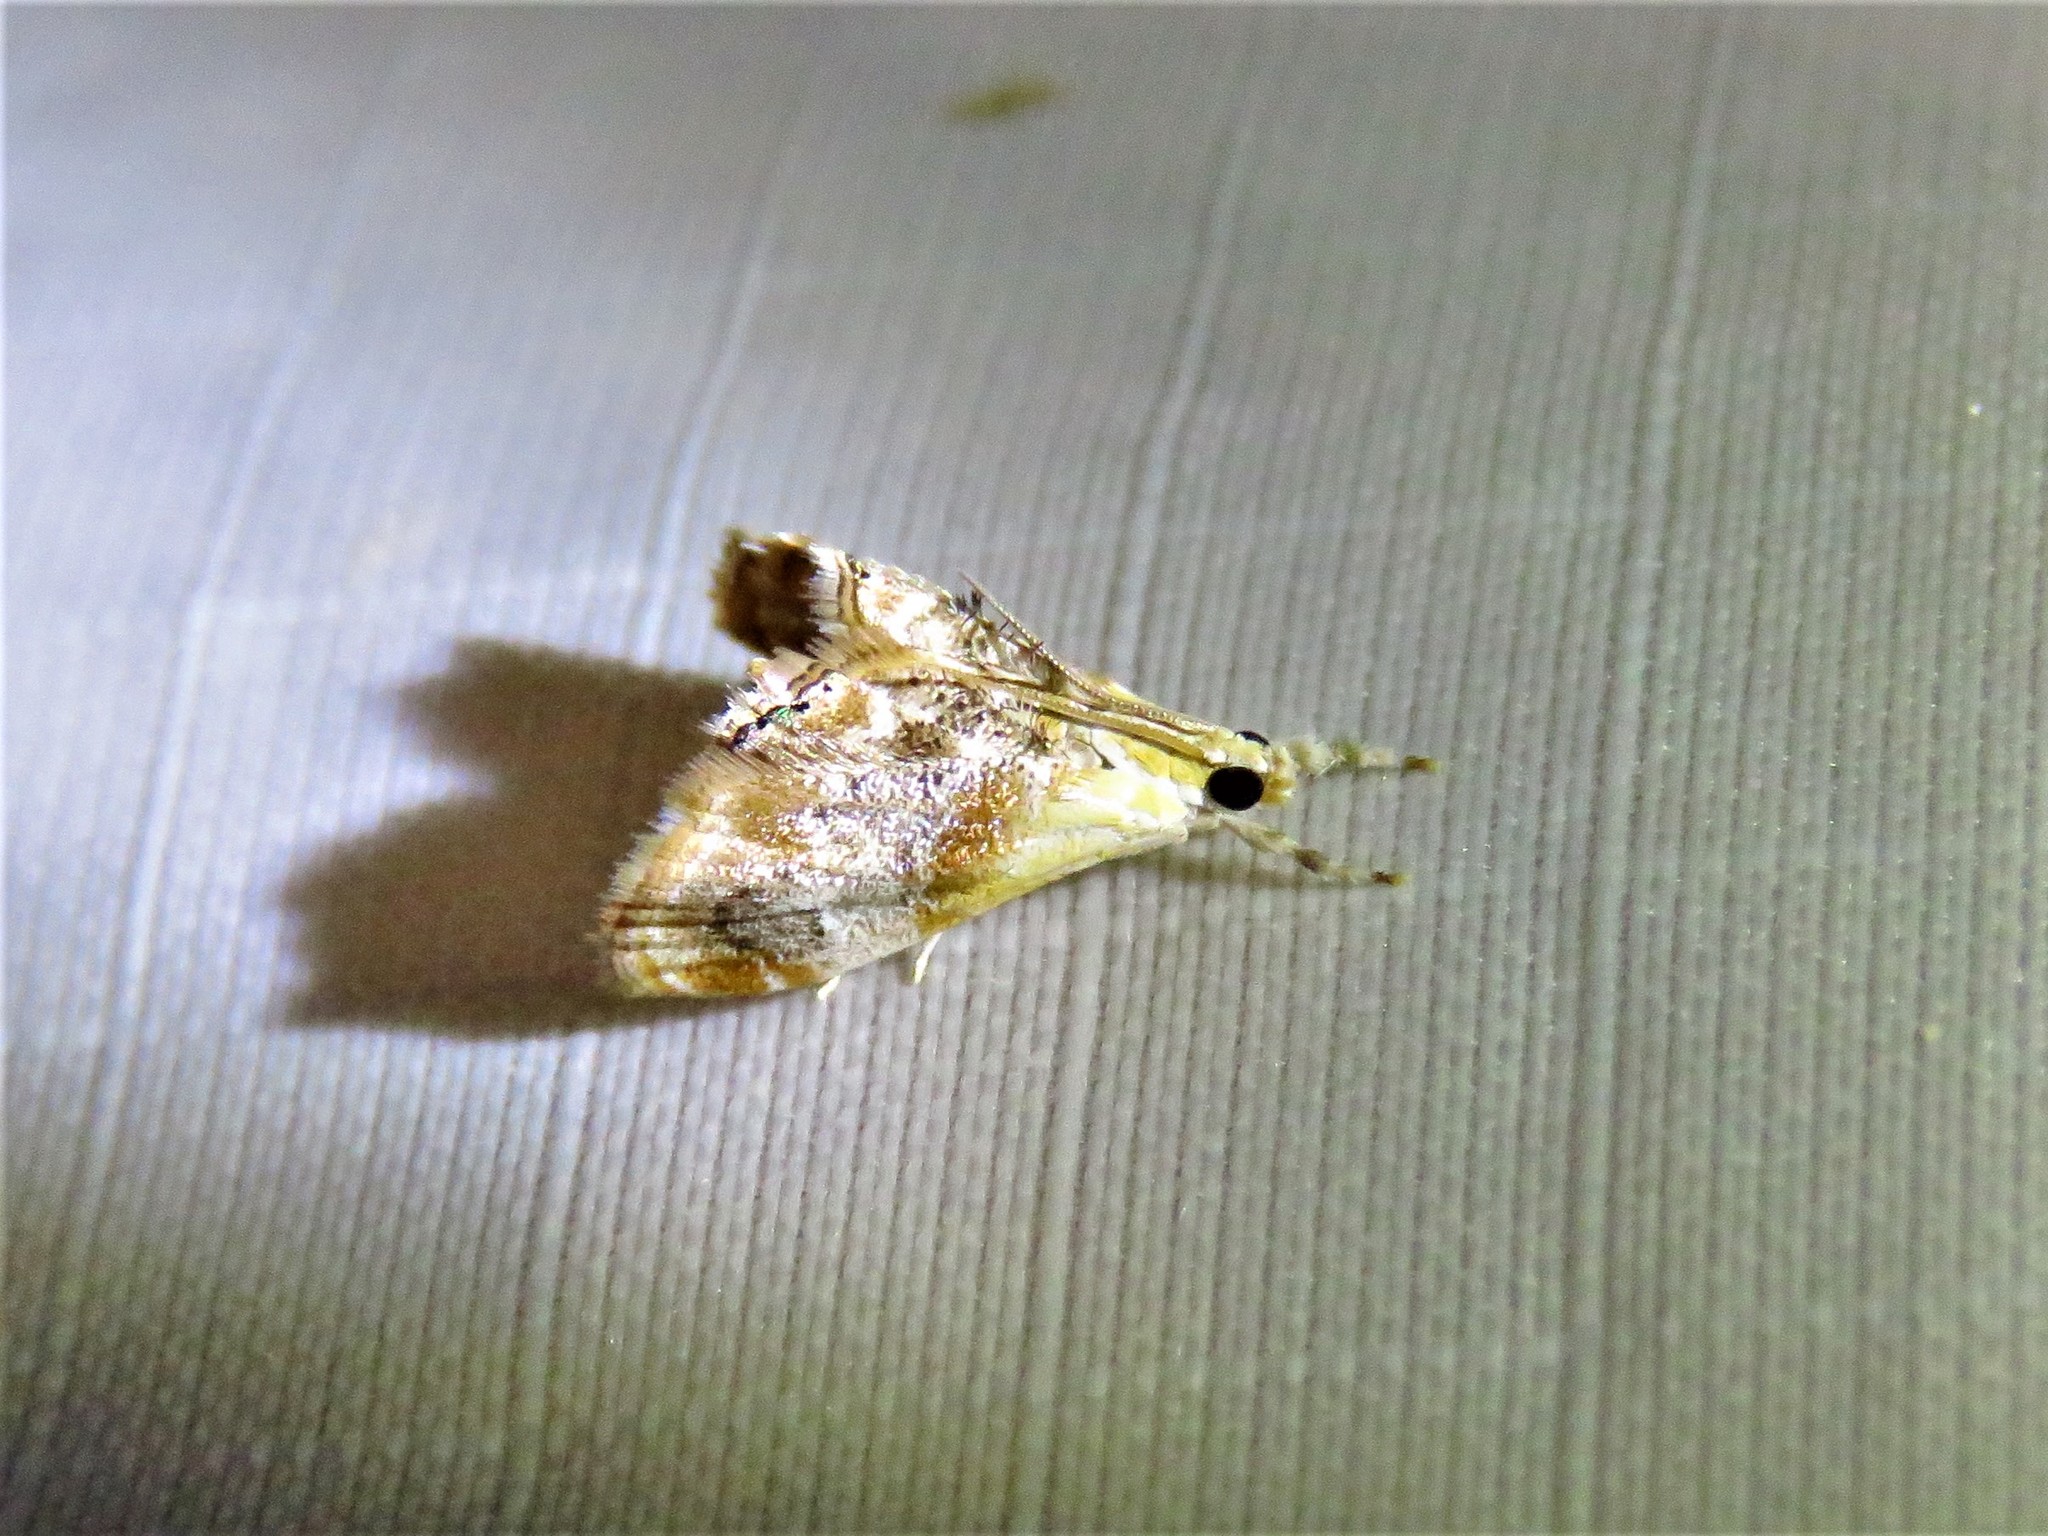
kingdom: Animalia
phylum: Arthropoda
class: Insecta
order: Lepidoptera
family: Crambidae
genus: Dicymolomia
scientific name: Dicymolomia julianalis
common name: Julia's dicymolomia moth
